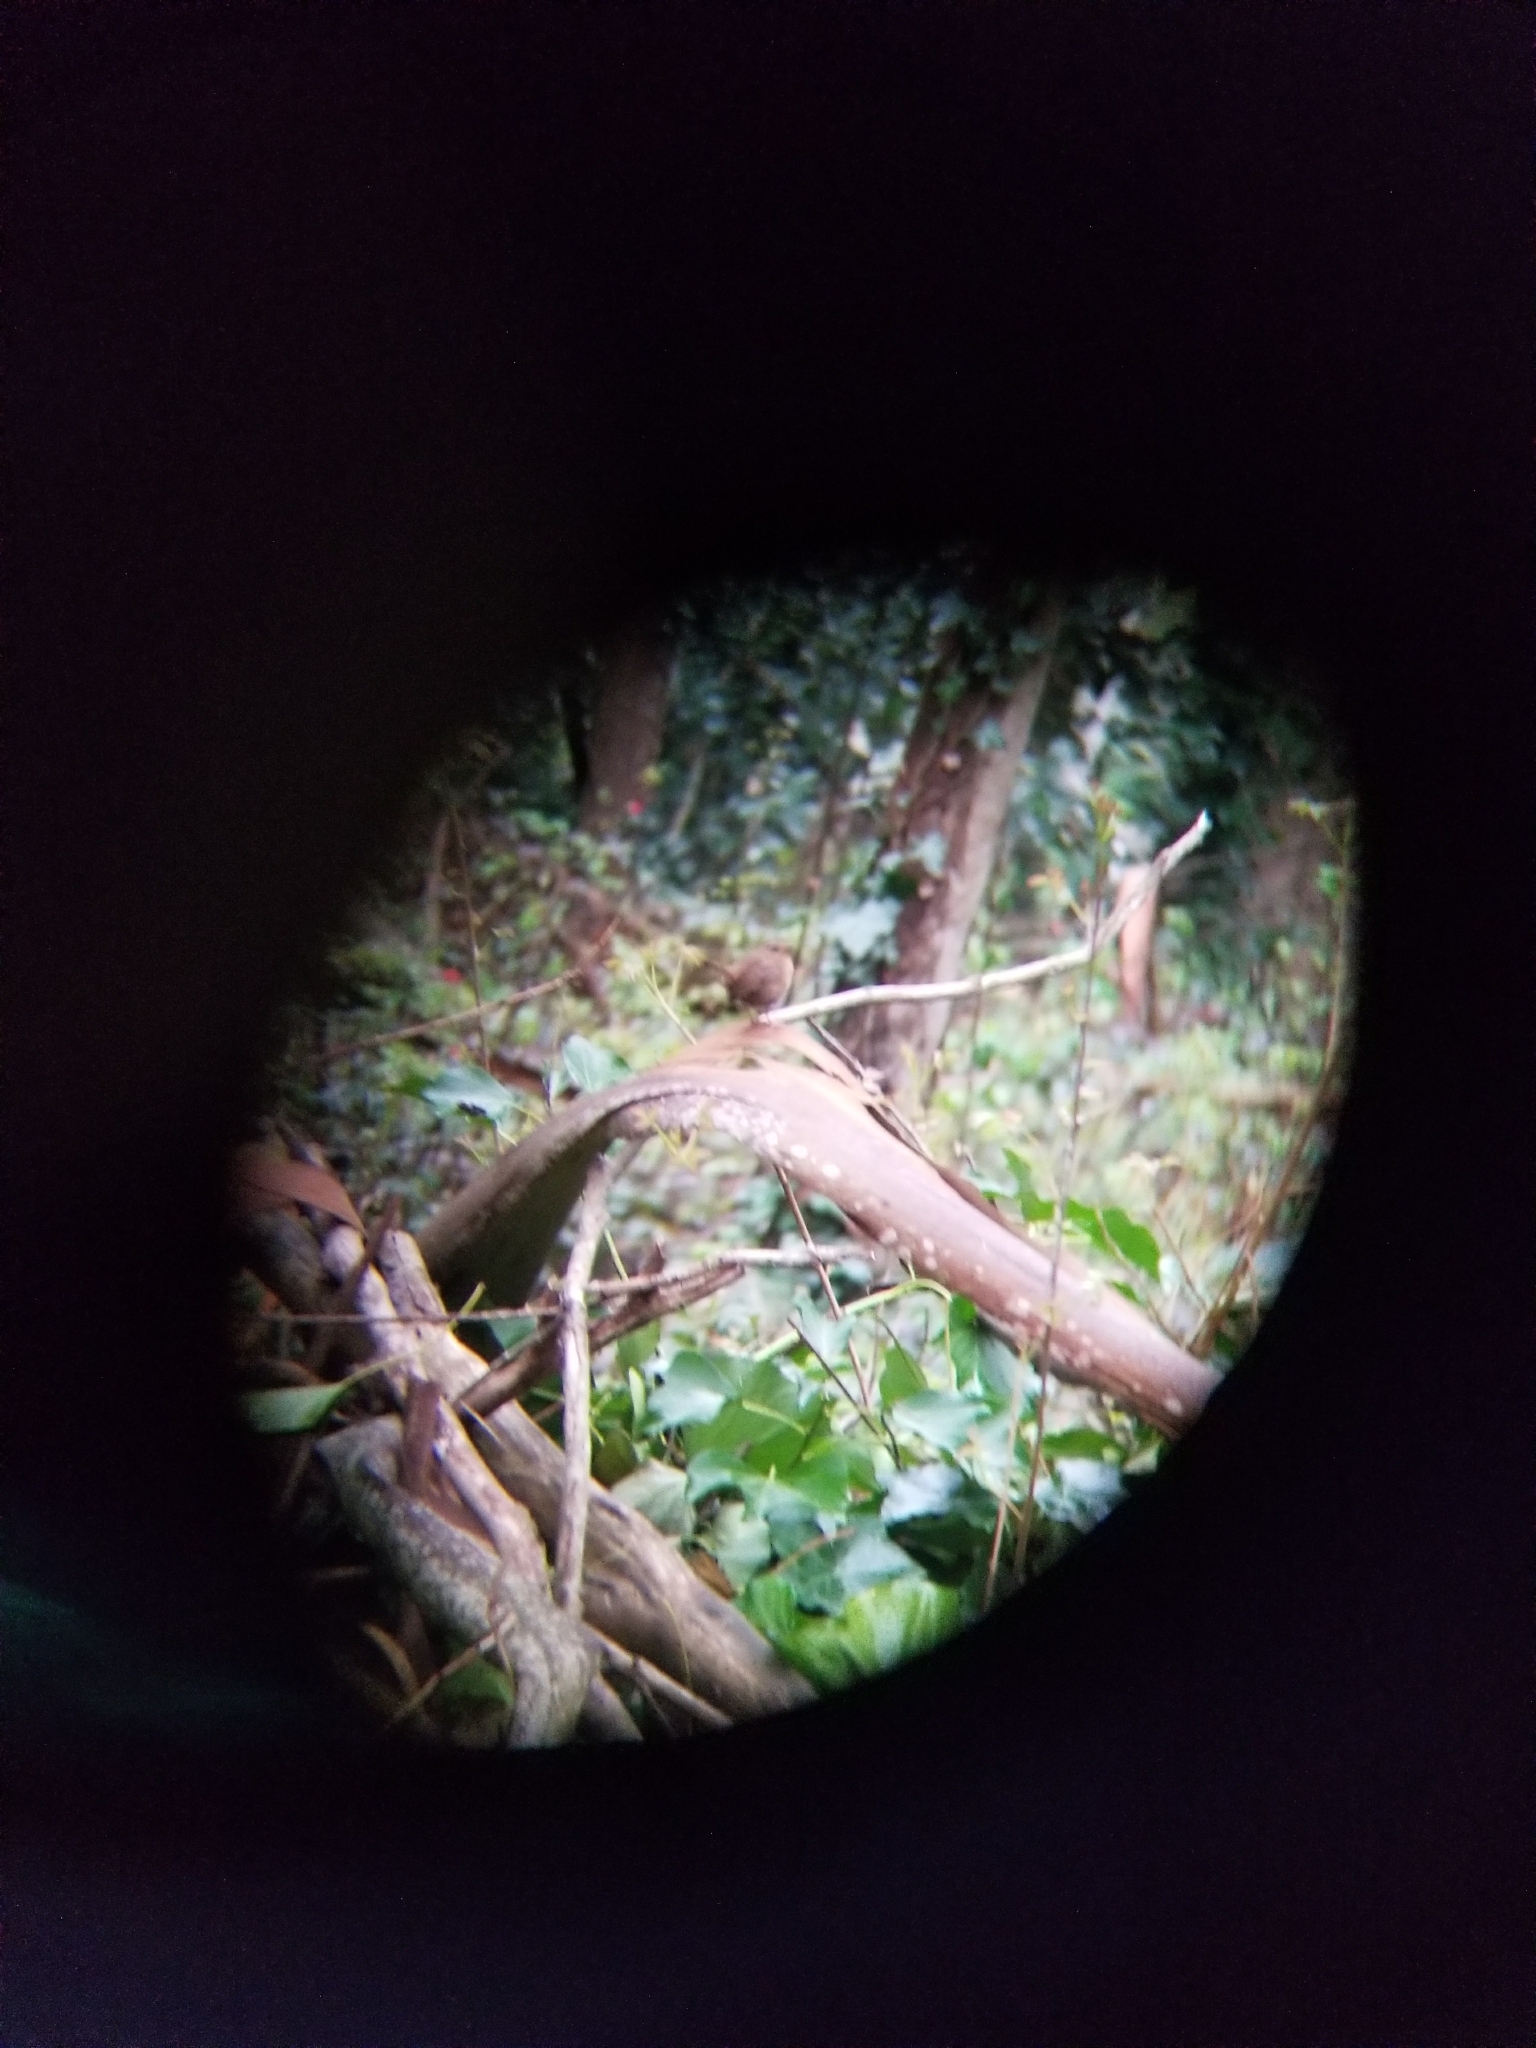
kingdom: Animalia
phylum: Chordata
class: Aves
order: Passeriformes
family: Troglodytidae
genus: Troglodytes
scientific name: Troglodytes pacificus
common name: Pacific wren
